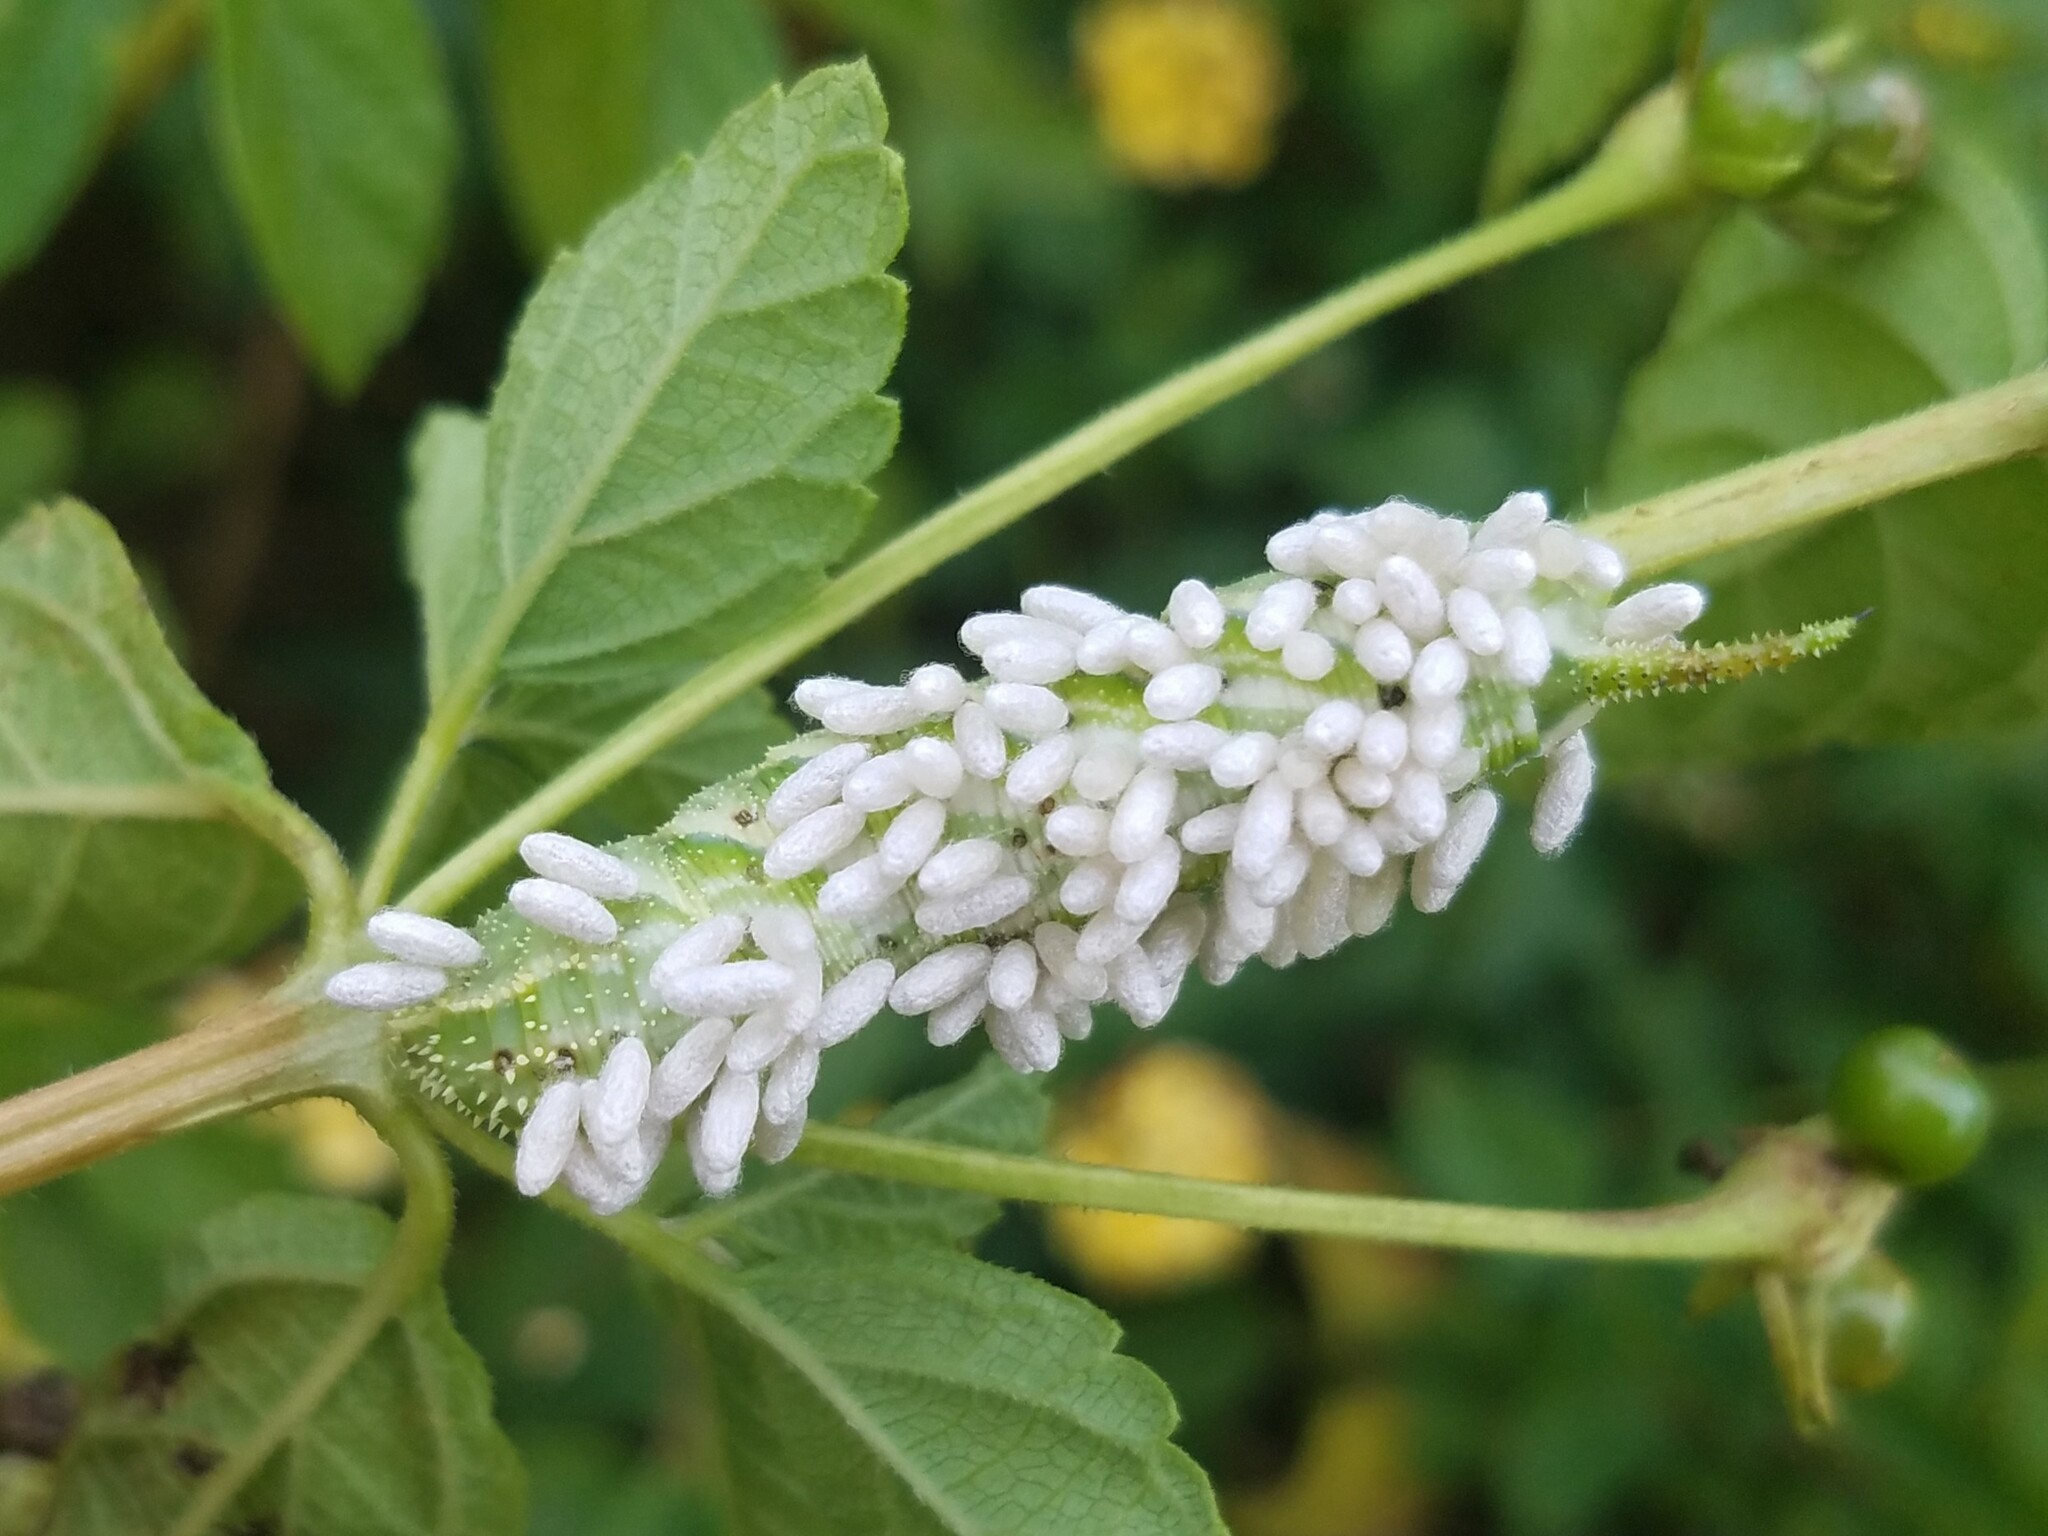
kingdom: Animalia
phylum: Arthropoda
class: Insecta
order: Lepidoptera
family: Sphingidae
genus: Manduca
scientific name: Manduca rustica
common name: Rustic sphinx
